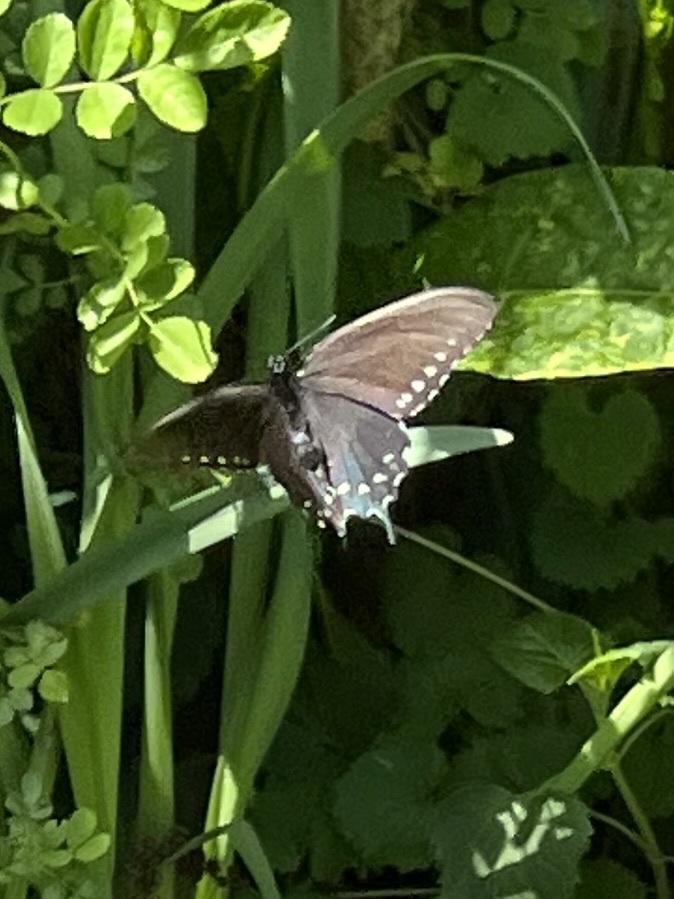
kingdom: Animalia
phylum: Arthropoda
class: Insecta
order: Lepidoptera
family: Papilionidae
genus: Battus
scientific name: Battus philenor
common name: Pipevine swallowtail
